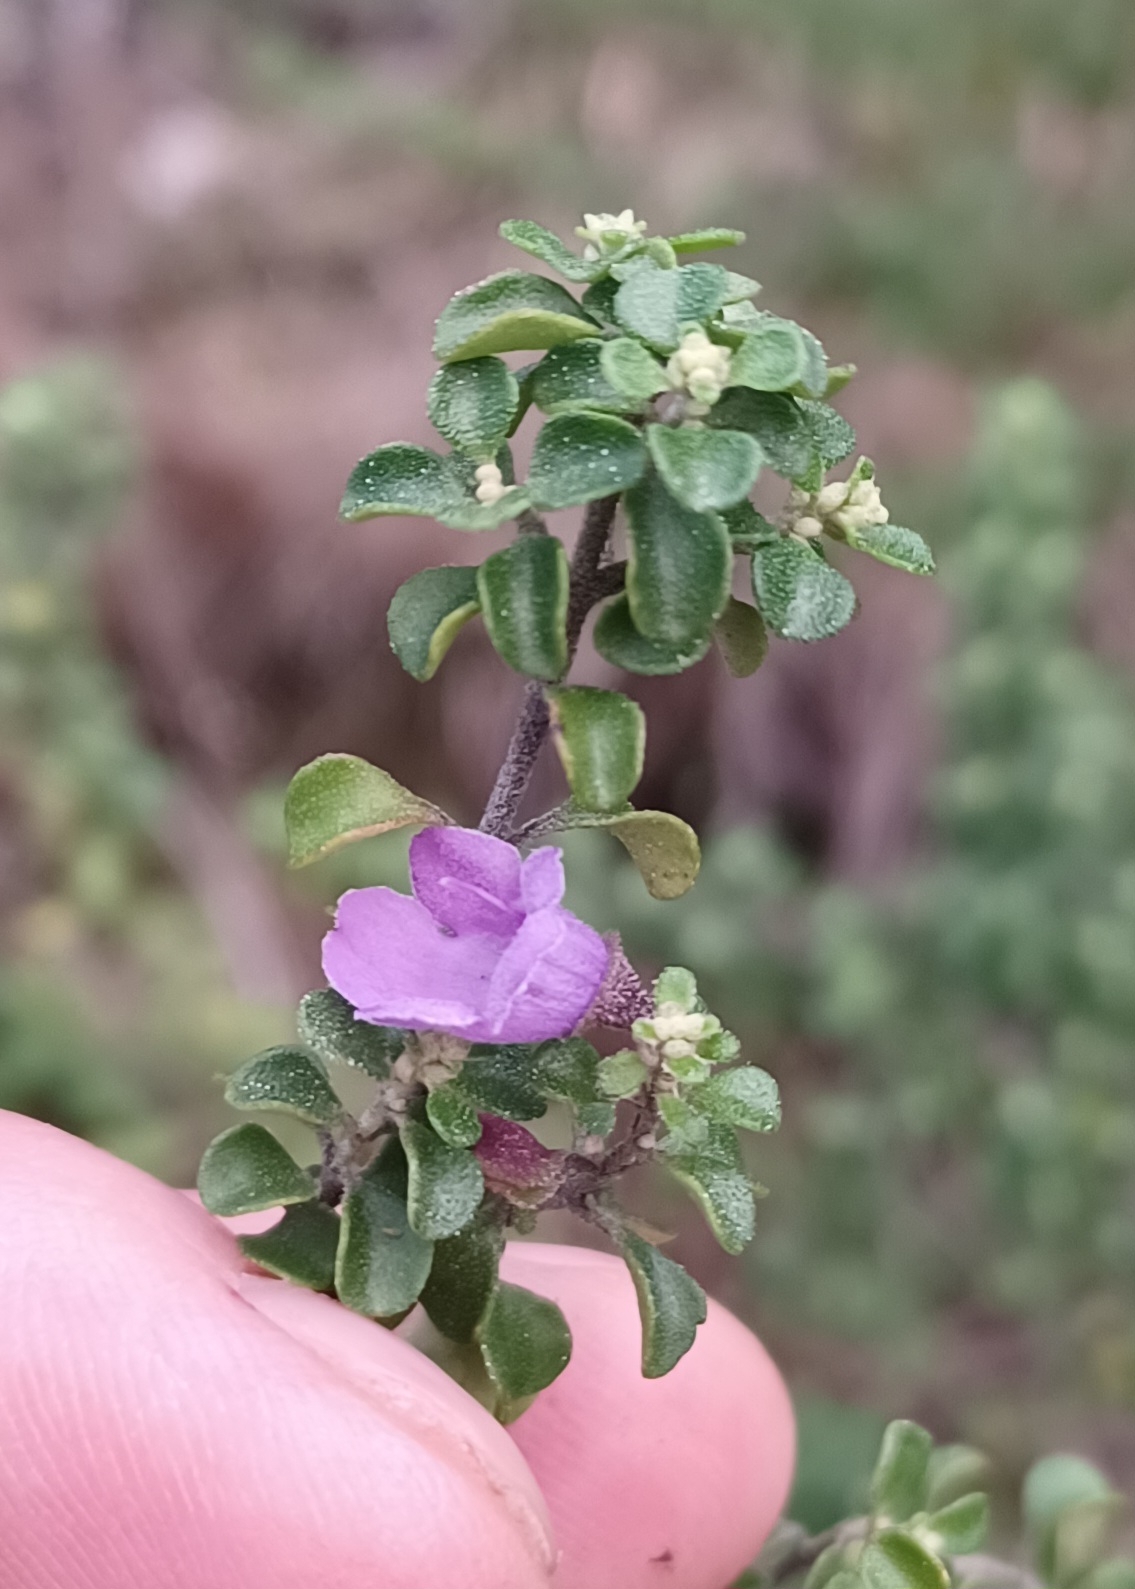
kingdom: Plantae
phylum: Tracheophyta
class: Magnoliopsida
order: Lamiales
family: Lamiaceae
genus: Prostanthera
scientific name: Prostanthera rotundifolia
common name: Round-leaf mintbush
